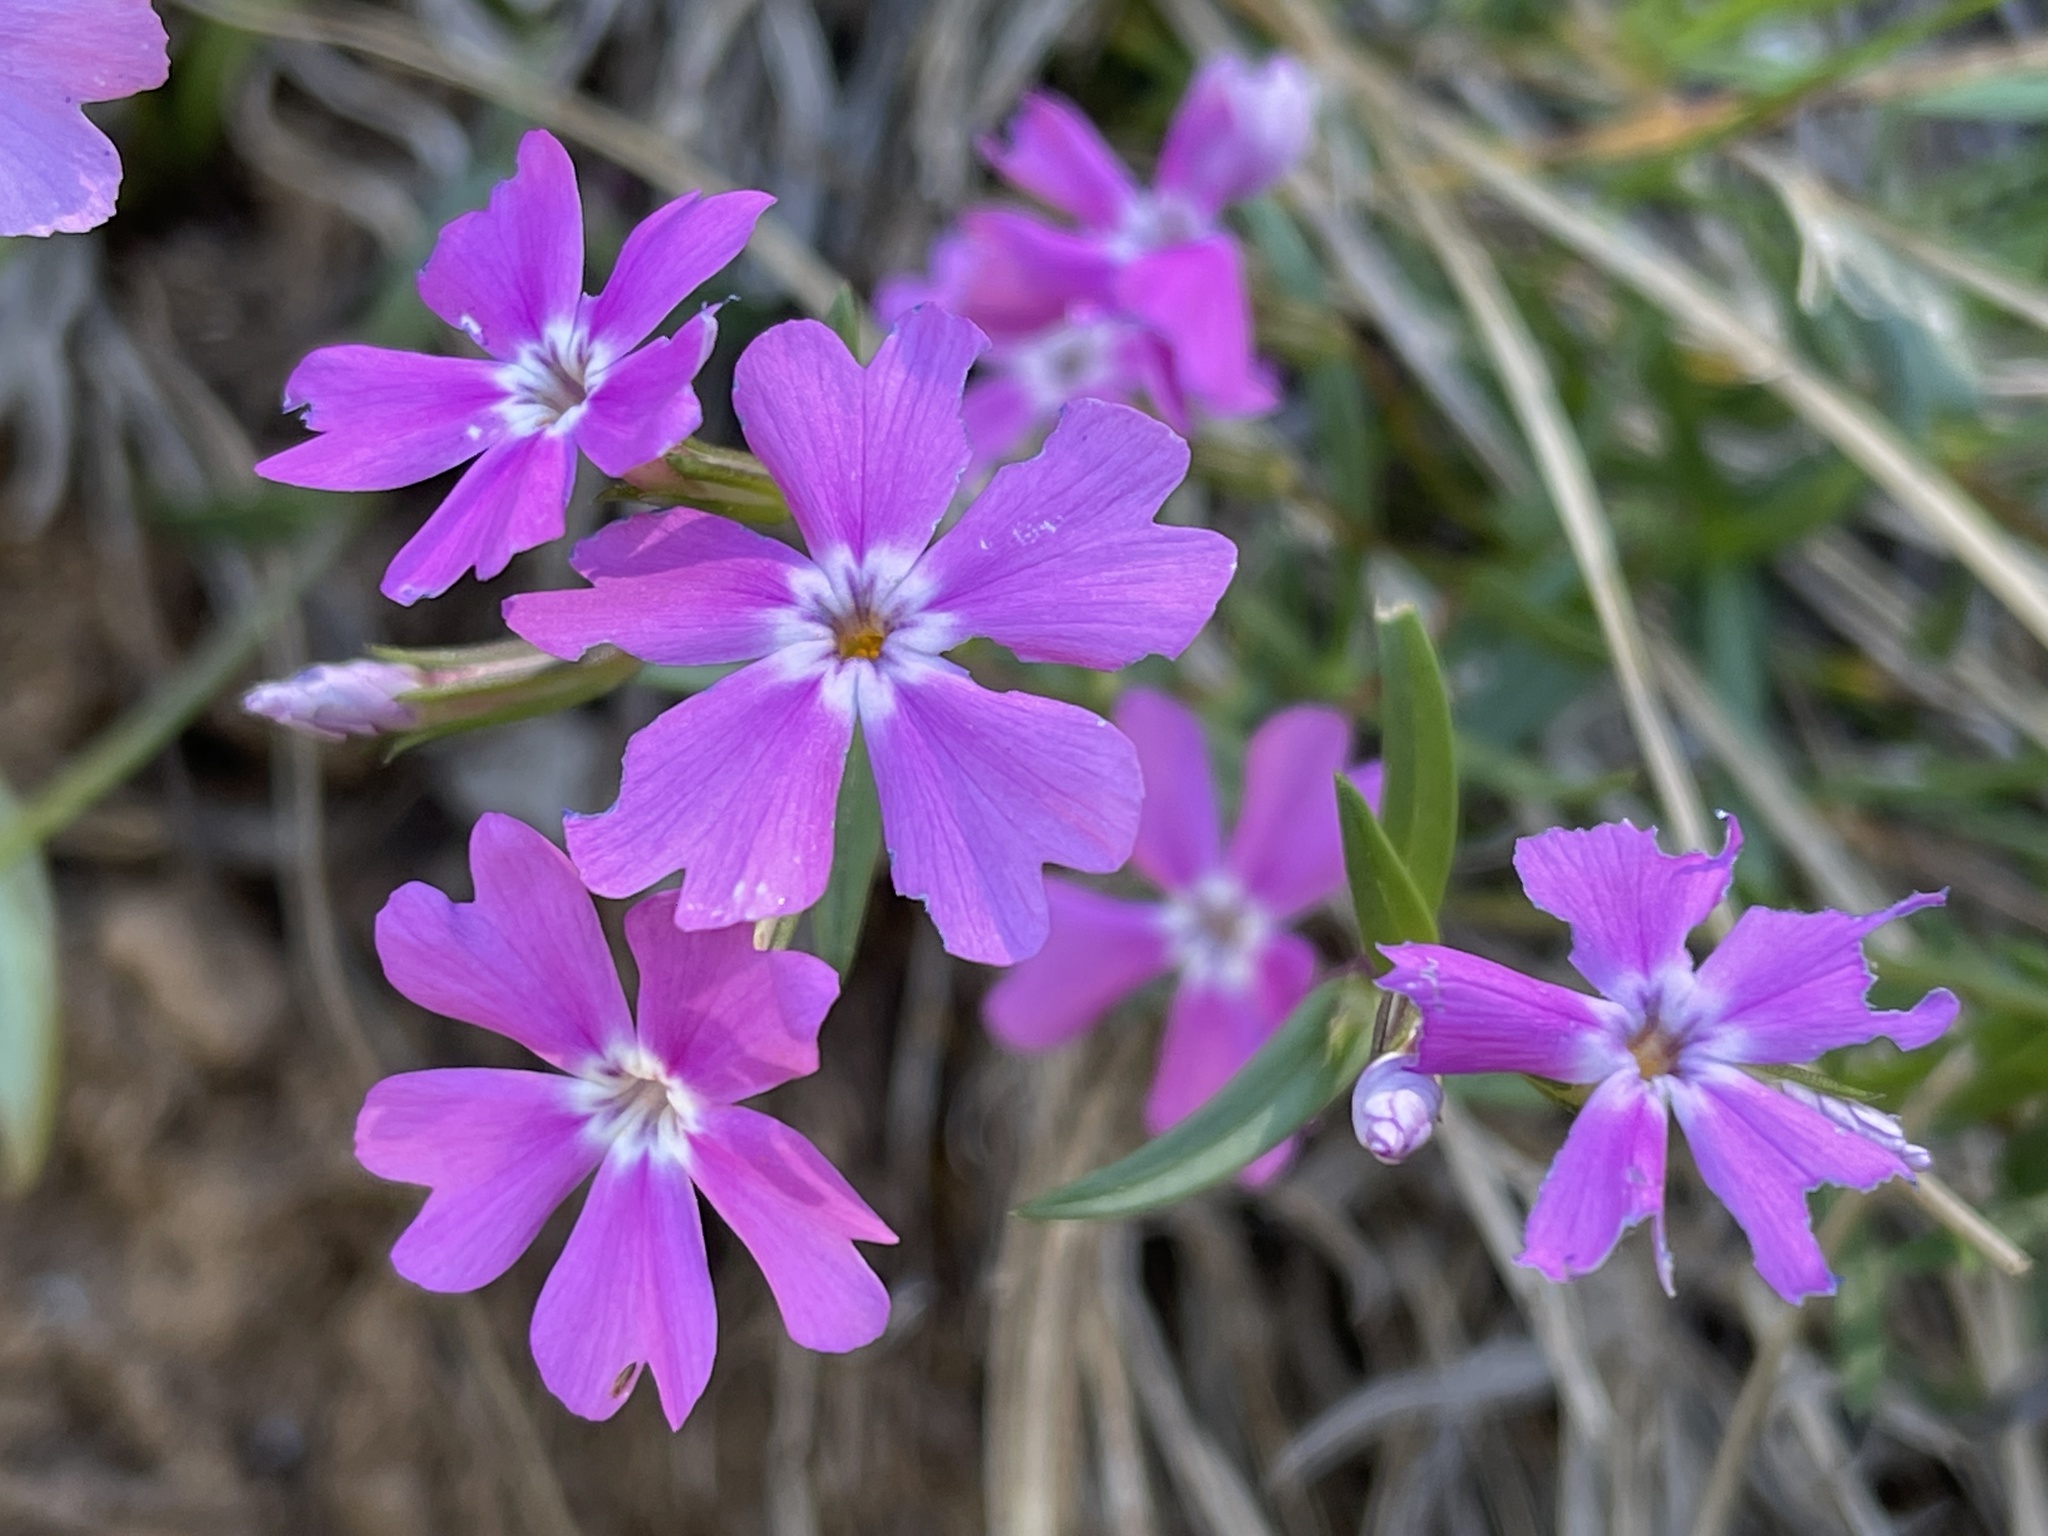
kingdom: Plantae
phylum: Tracheophyta
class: Magnoliopsida
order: Ericales
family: Polemoniaceae
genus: Phlox
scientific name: Phlox speciosa
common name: Bush phlox
